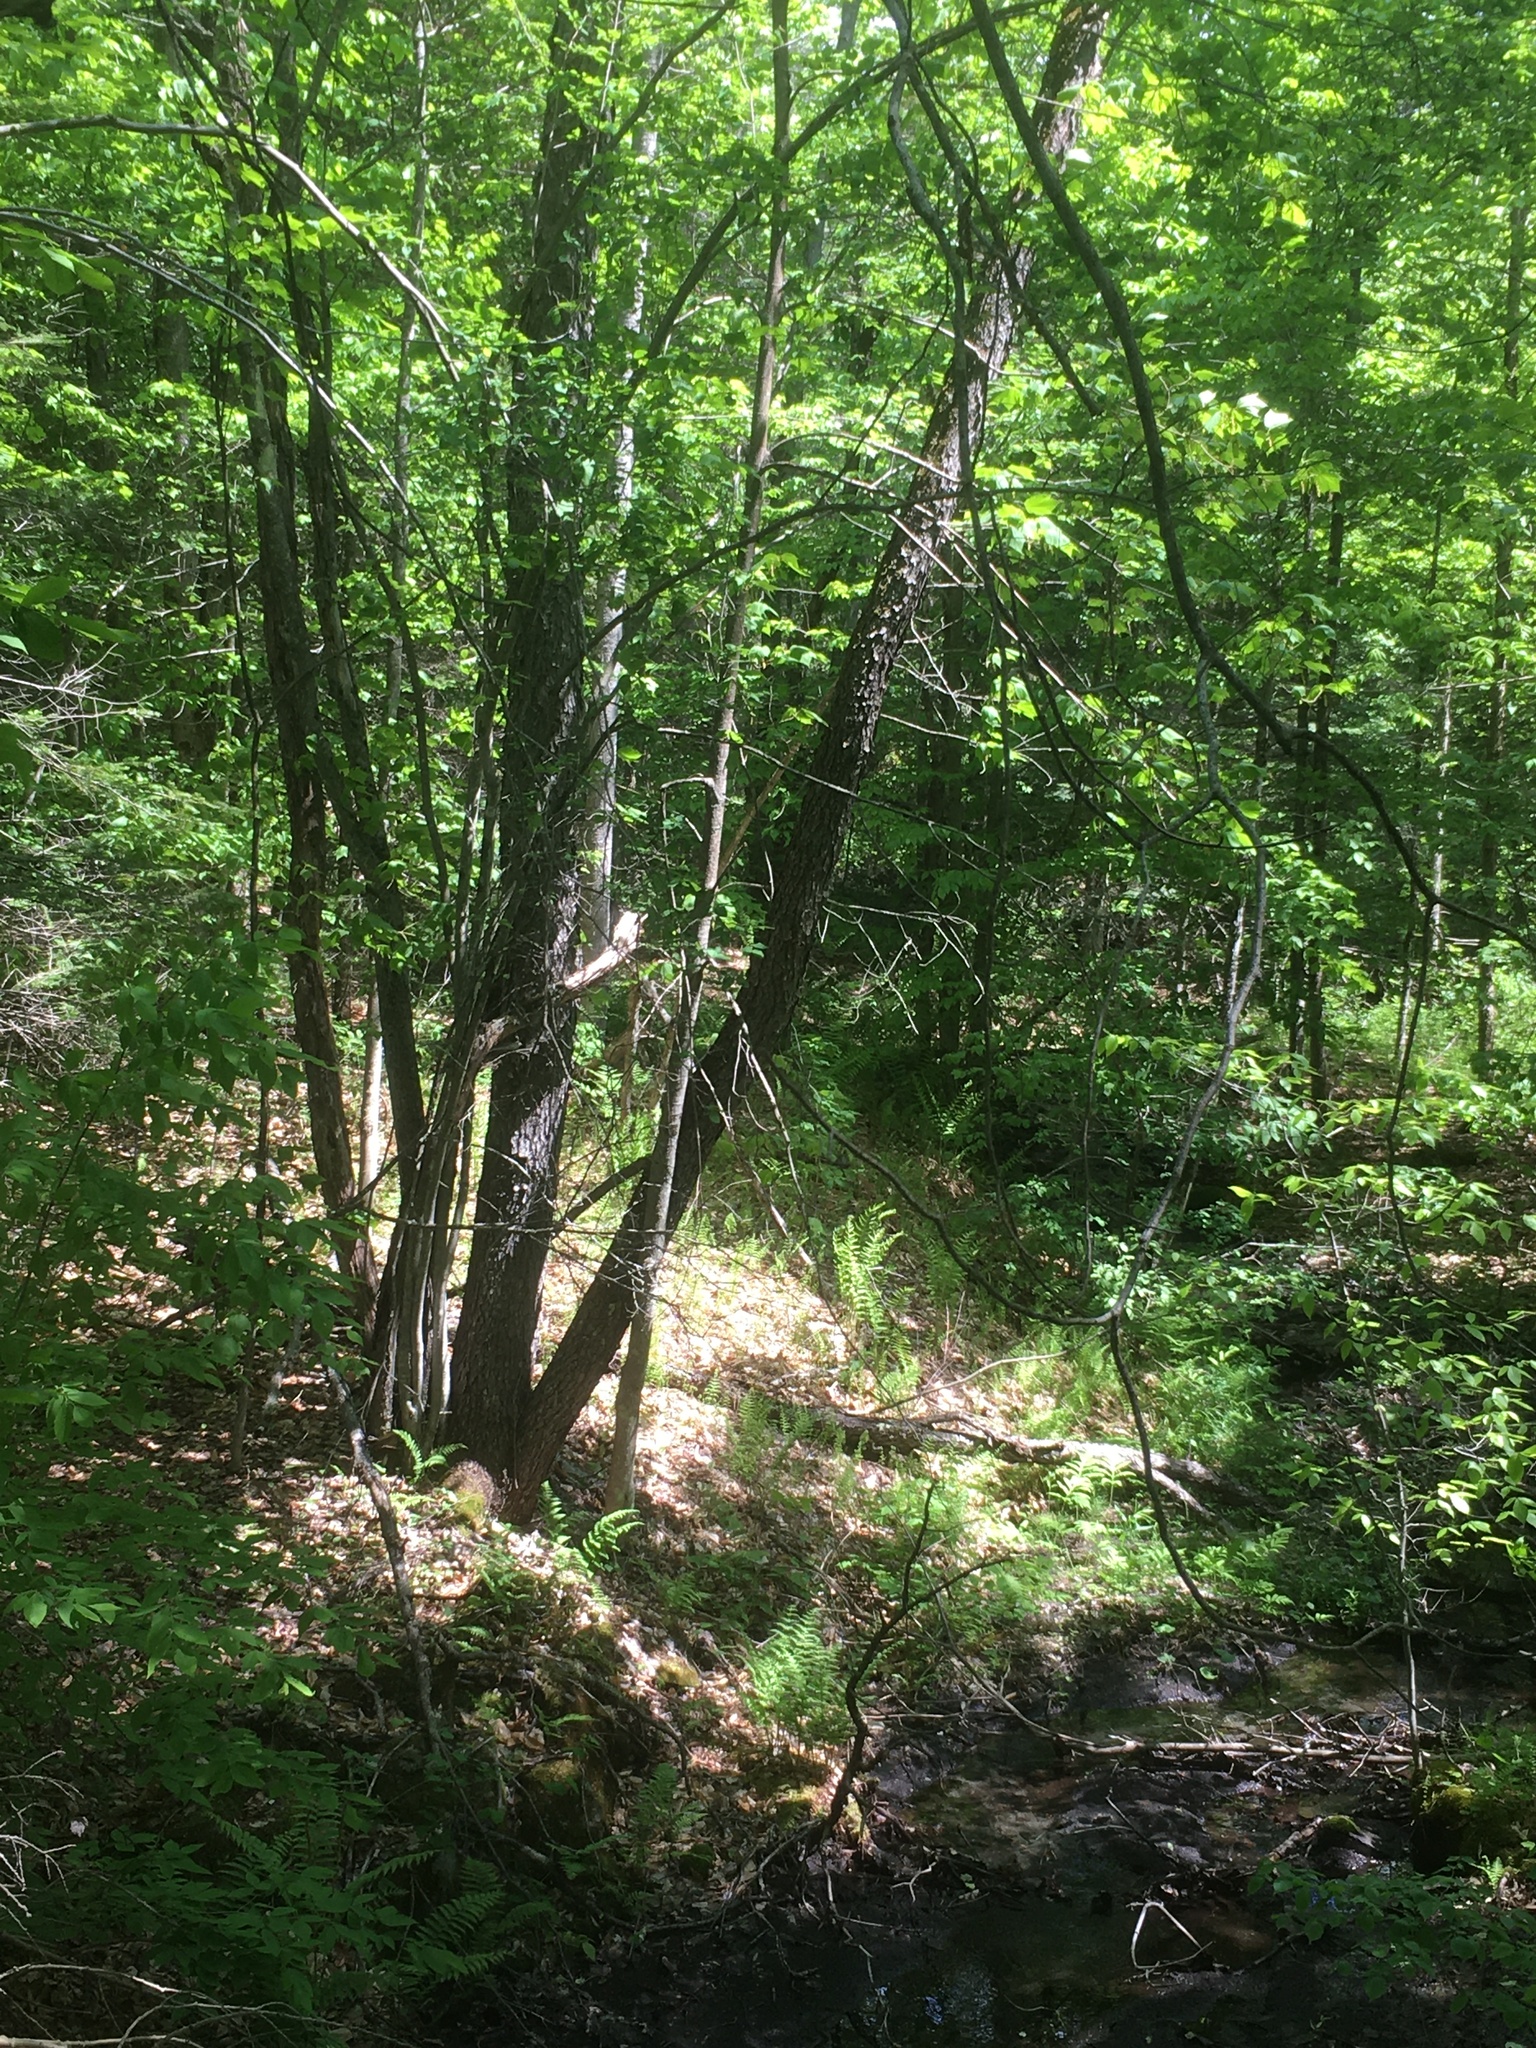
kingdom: Plantae
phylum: Tracheophyta
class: Magnoliopsida
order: Rosales
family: Rosaceae
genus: Prunus
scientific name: Prunus serotina
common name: Black cherry
